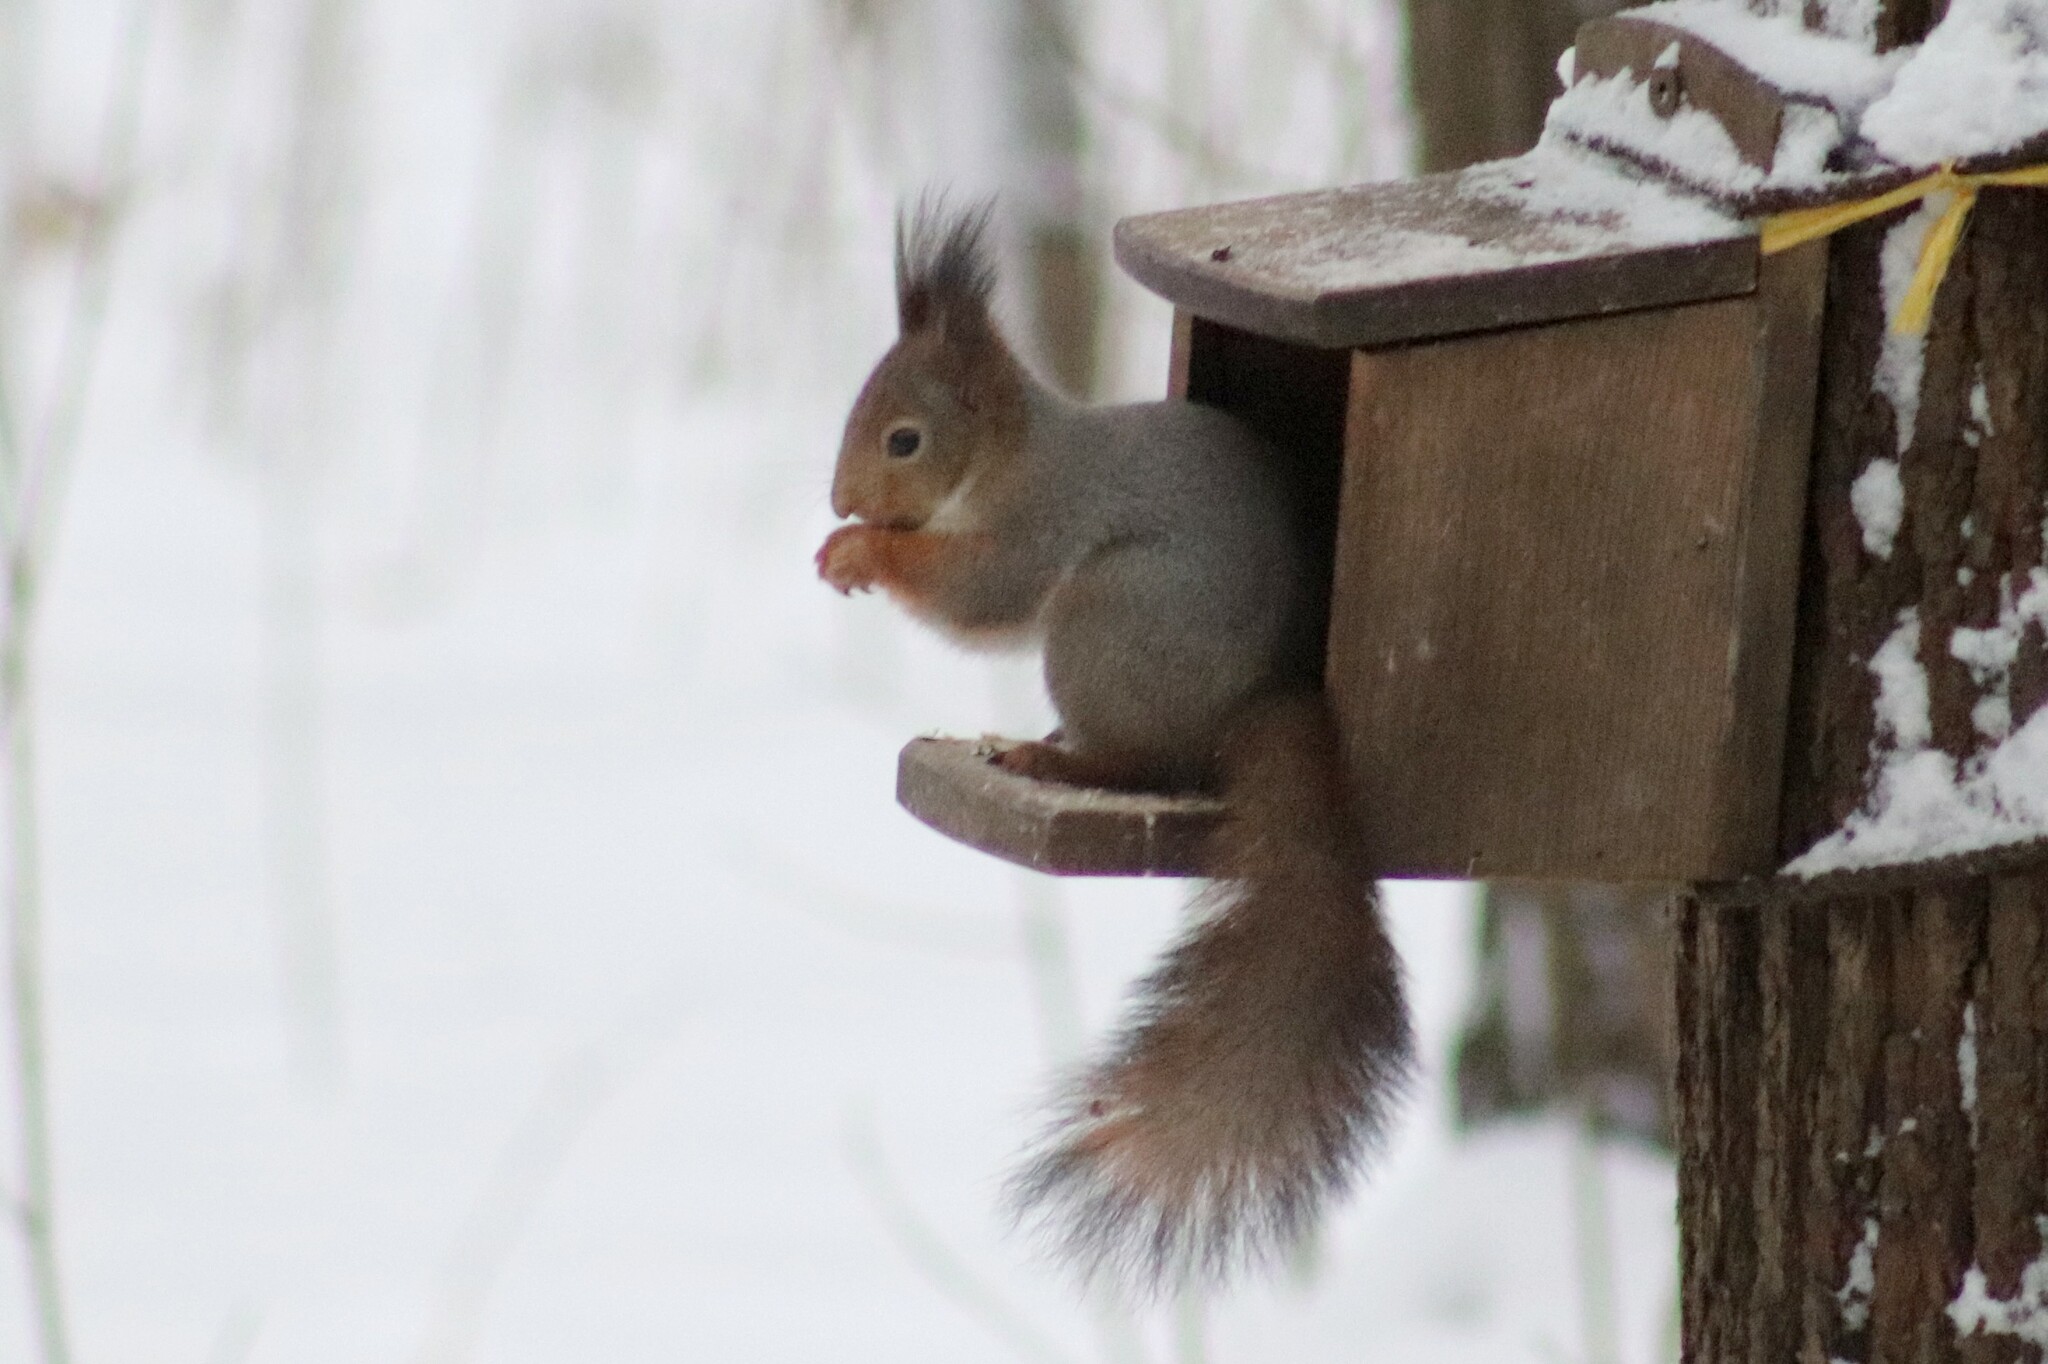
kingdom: Animalia
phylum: Chordata
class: Mammalia
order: Rodentia
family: Sciuridae
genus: Sciurus
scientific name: Sciurus vulgaris
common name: Eurasian red squirrel
